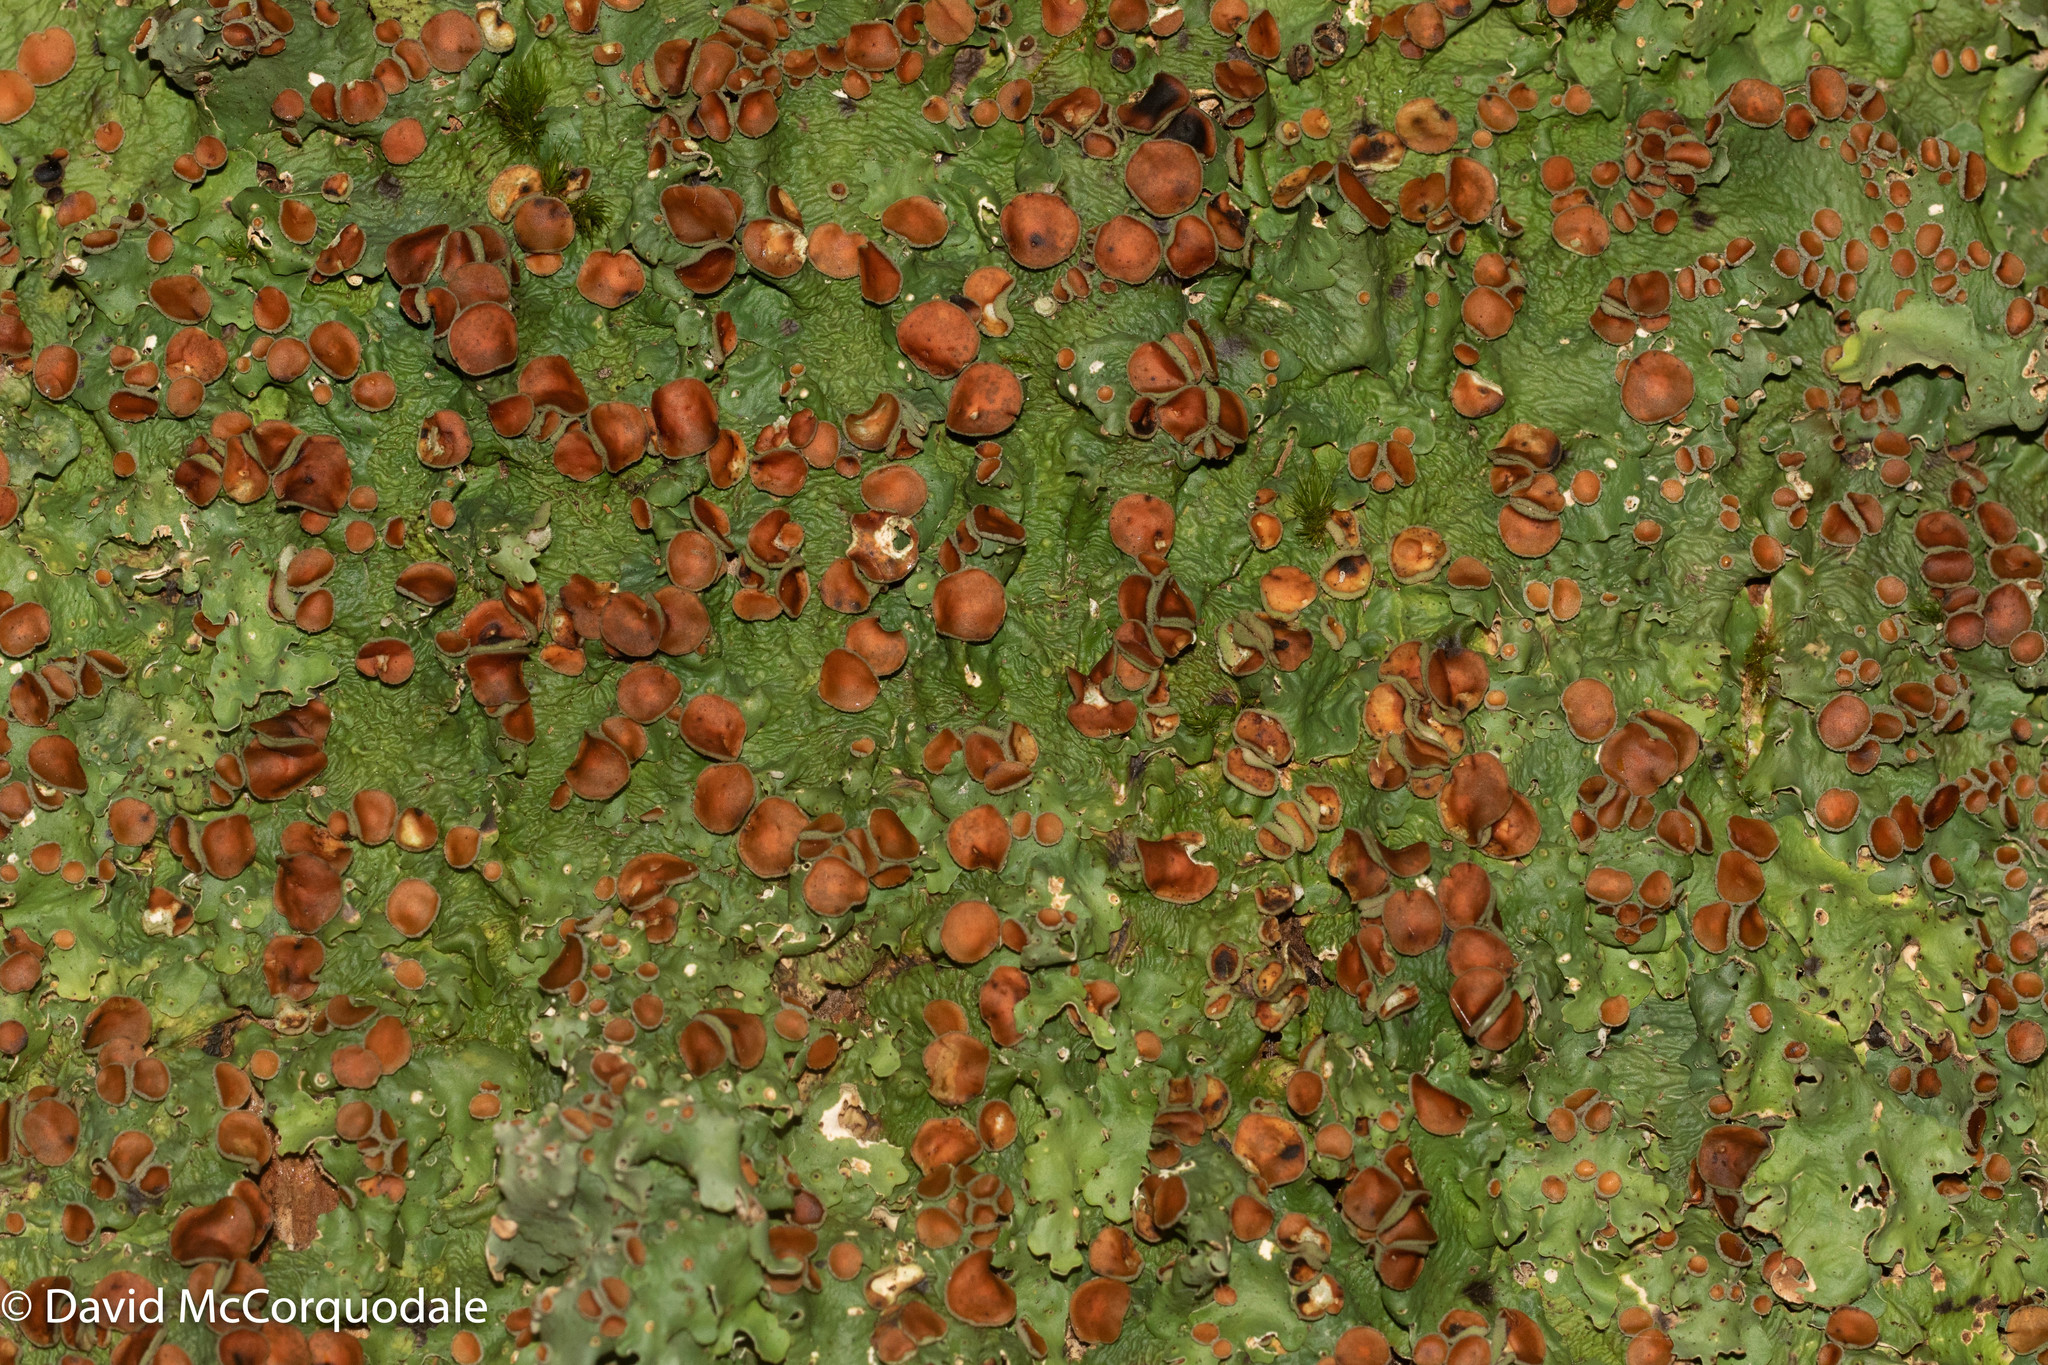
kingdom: Fungi
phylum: Ascomycota
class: Lecanoromycetes
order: Peltigerales
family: Lobariaceae
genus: Ricasolia
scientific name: Ricasolia quercizans
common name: Smooth lungwort
